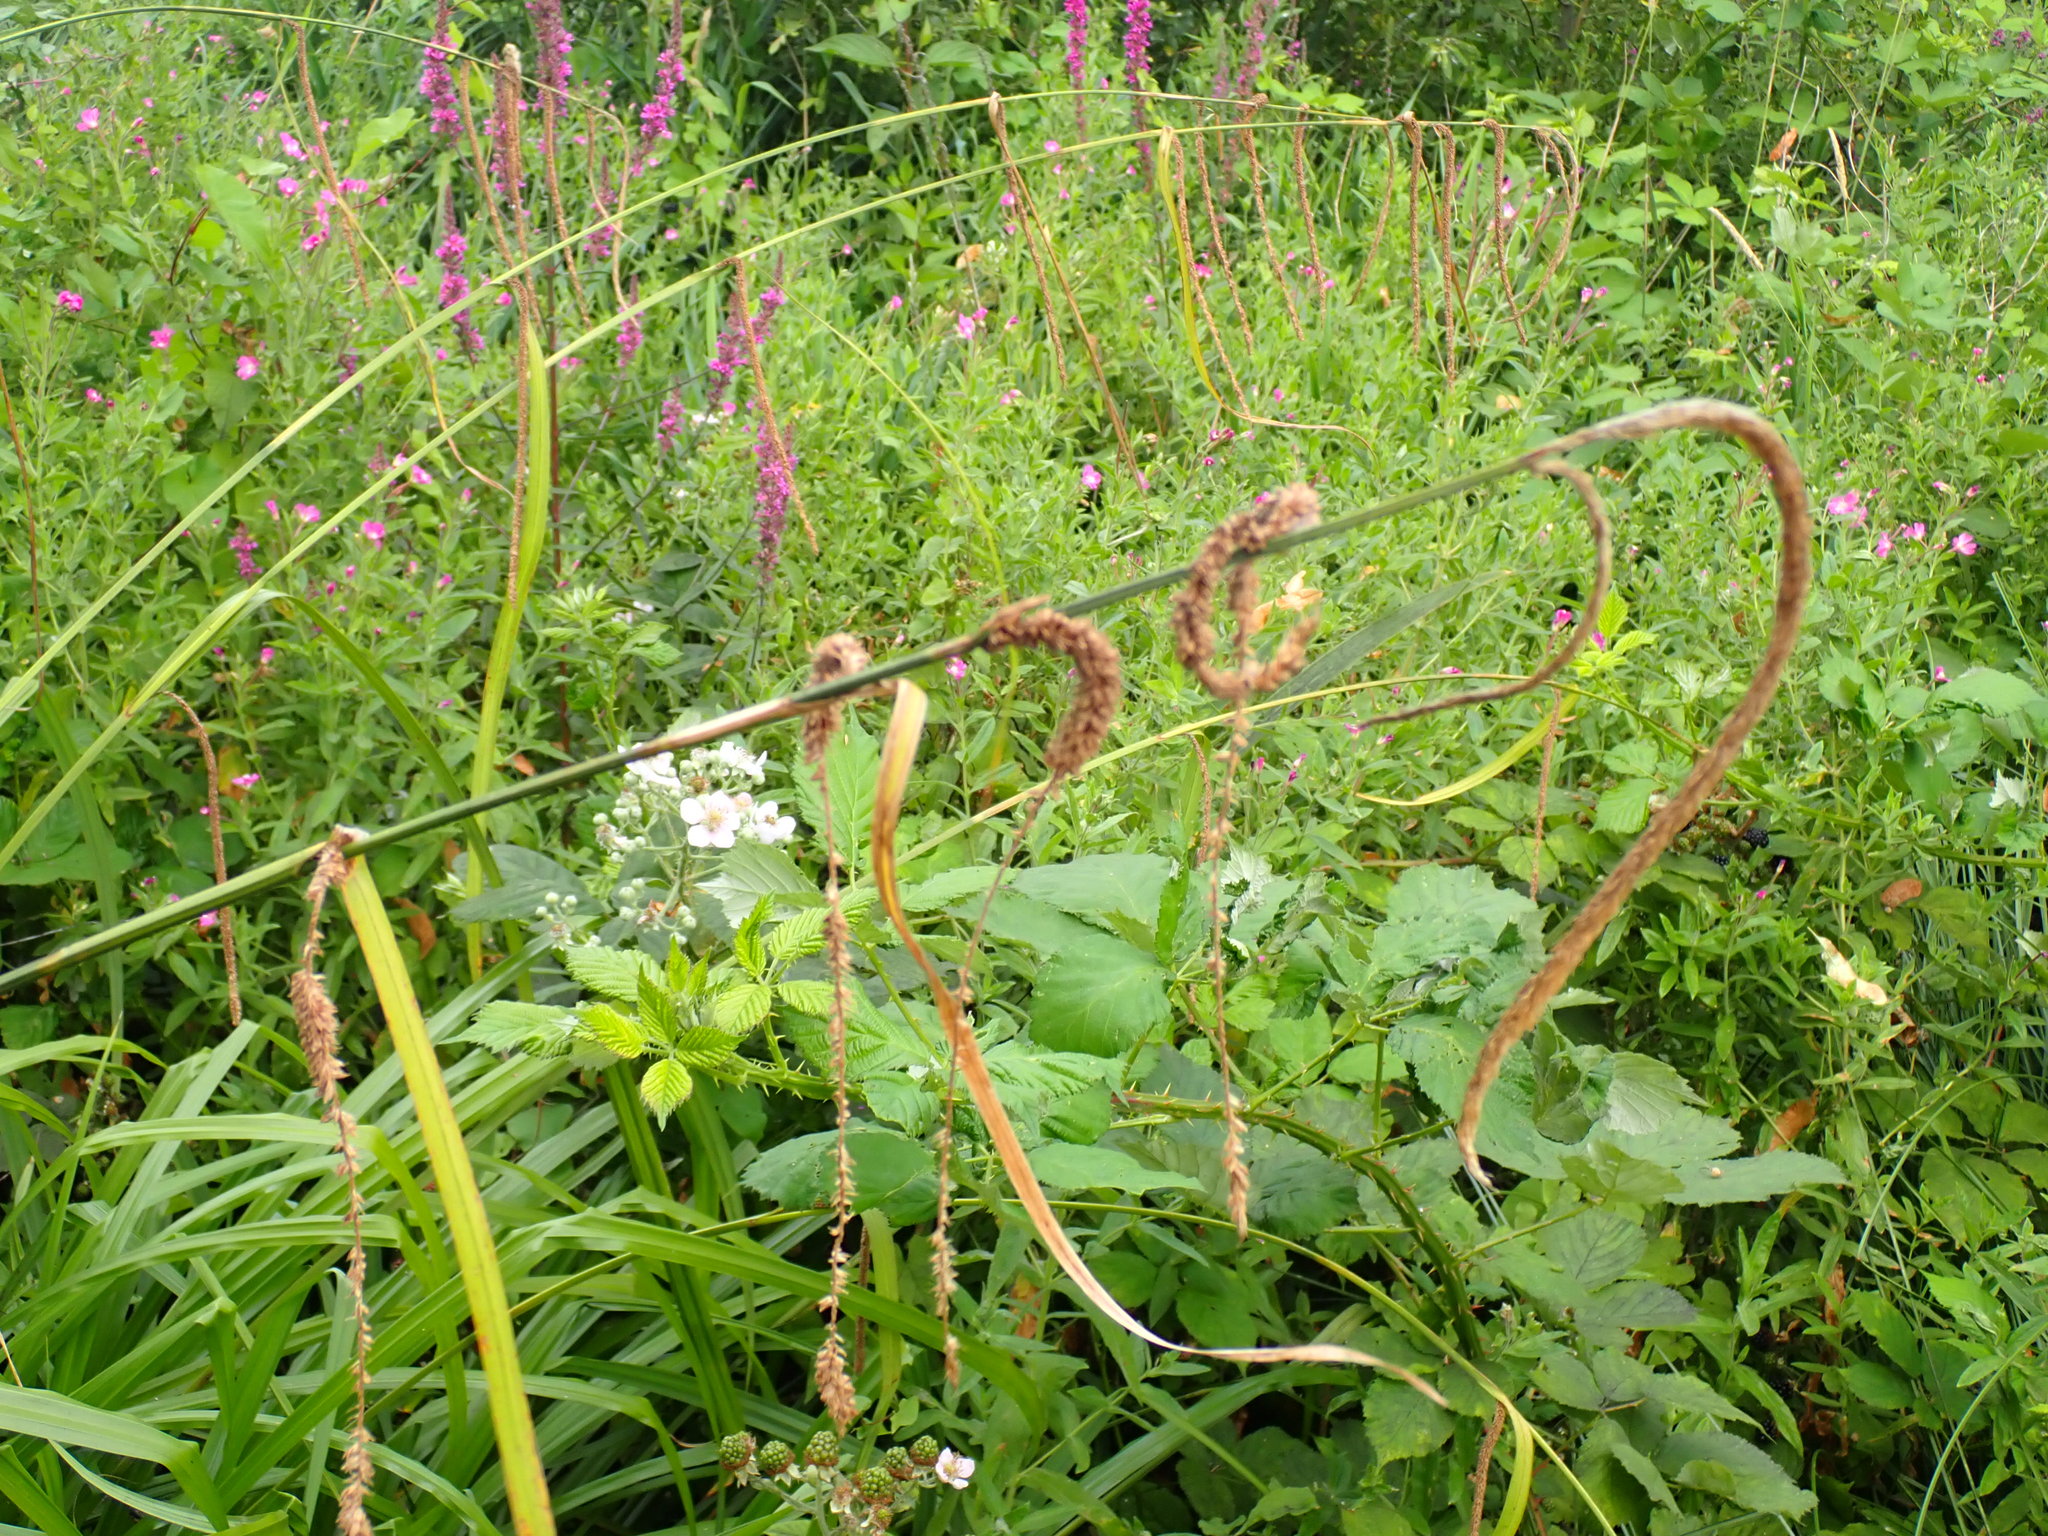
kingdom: Plantae
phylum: Tracheophyta
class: Liliopsida
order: Poales
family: Cyperaceae
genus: Carex
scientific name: Carex pendula
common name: Pendulous sedge
